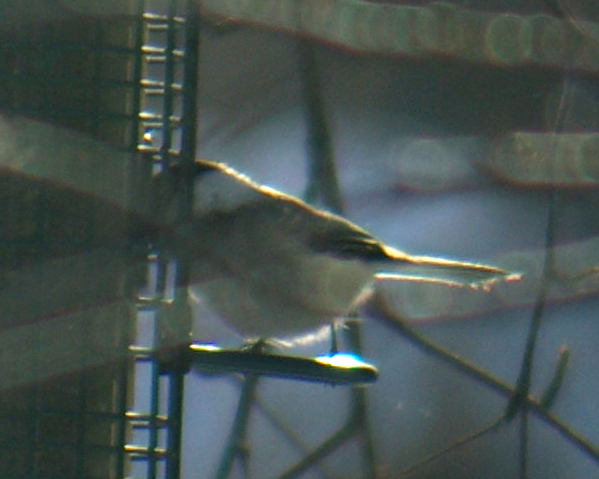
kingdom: Animalia
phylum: Chordata
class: Aves
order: Passeriformes
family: Paridae
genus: Poecile
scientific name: Poecile atricapillus
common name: Black-capped chickadee
